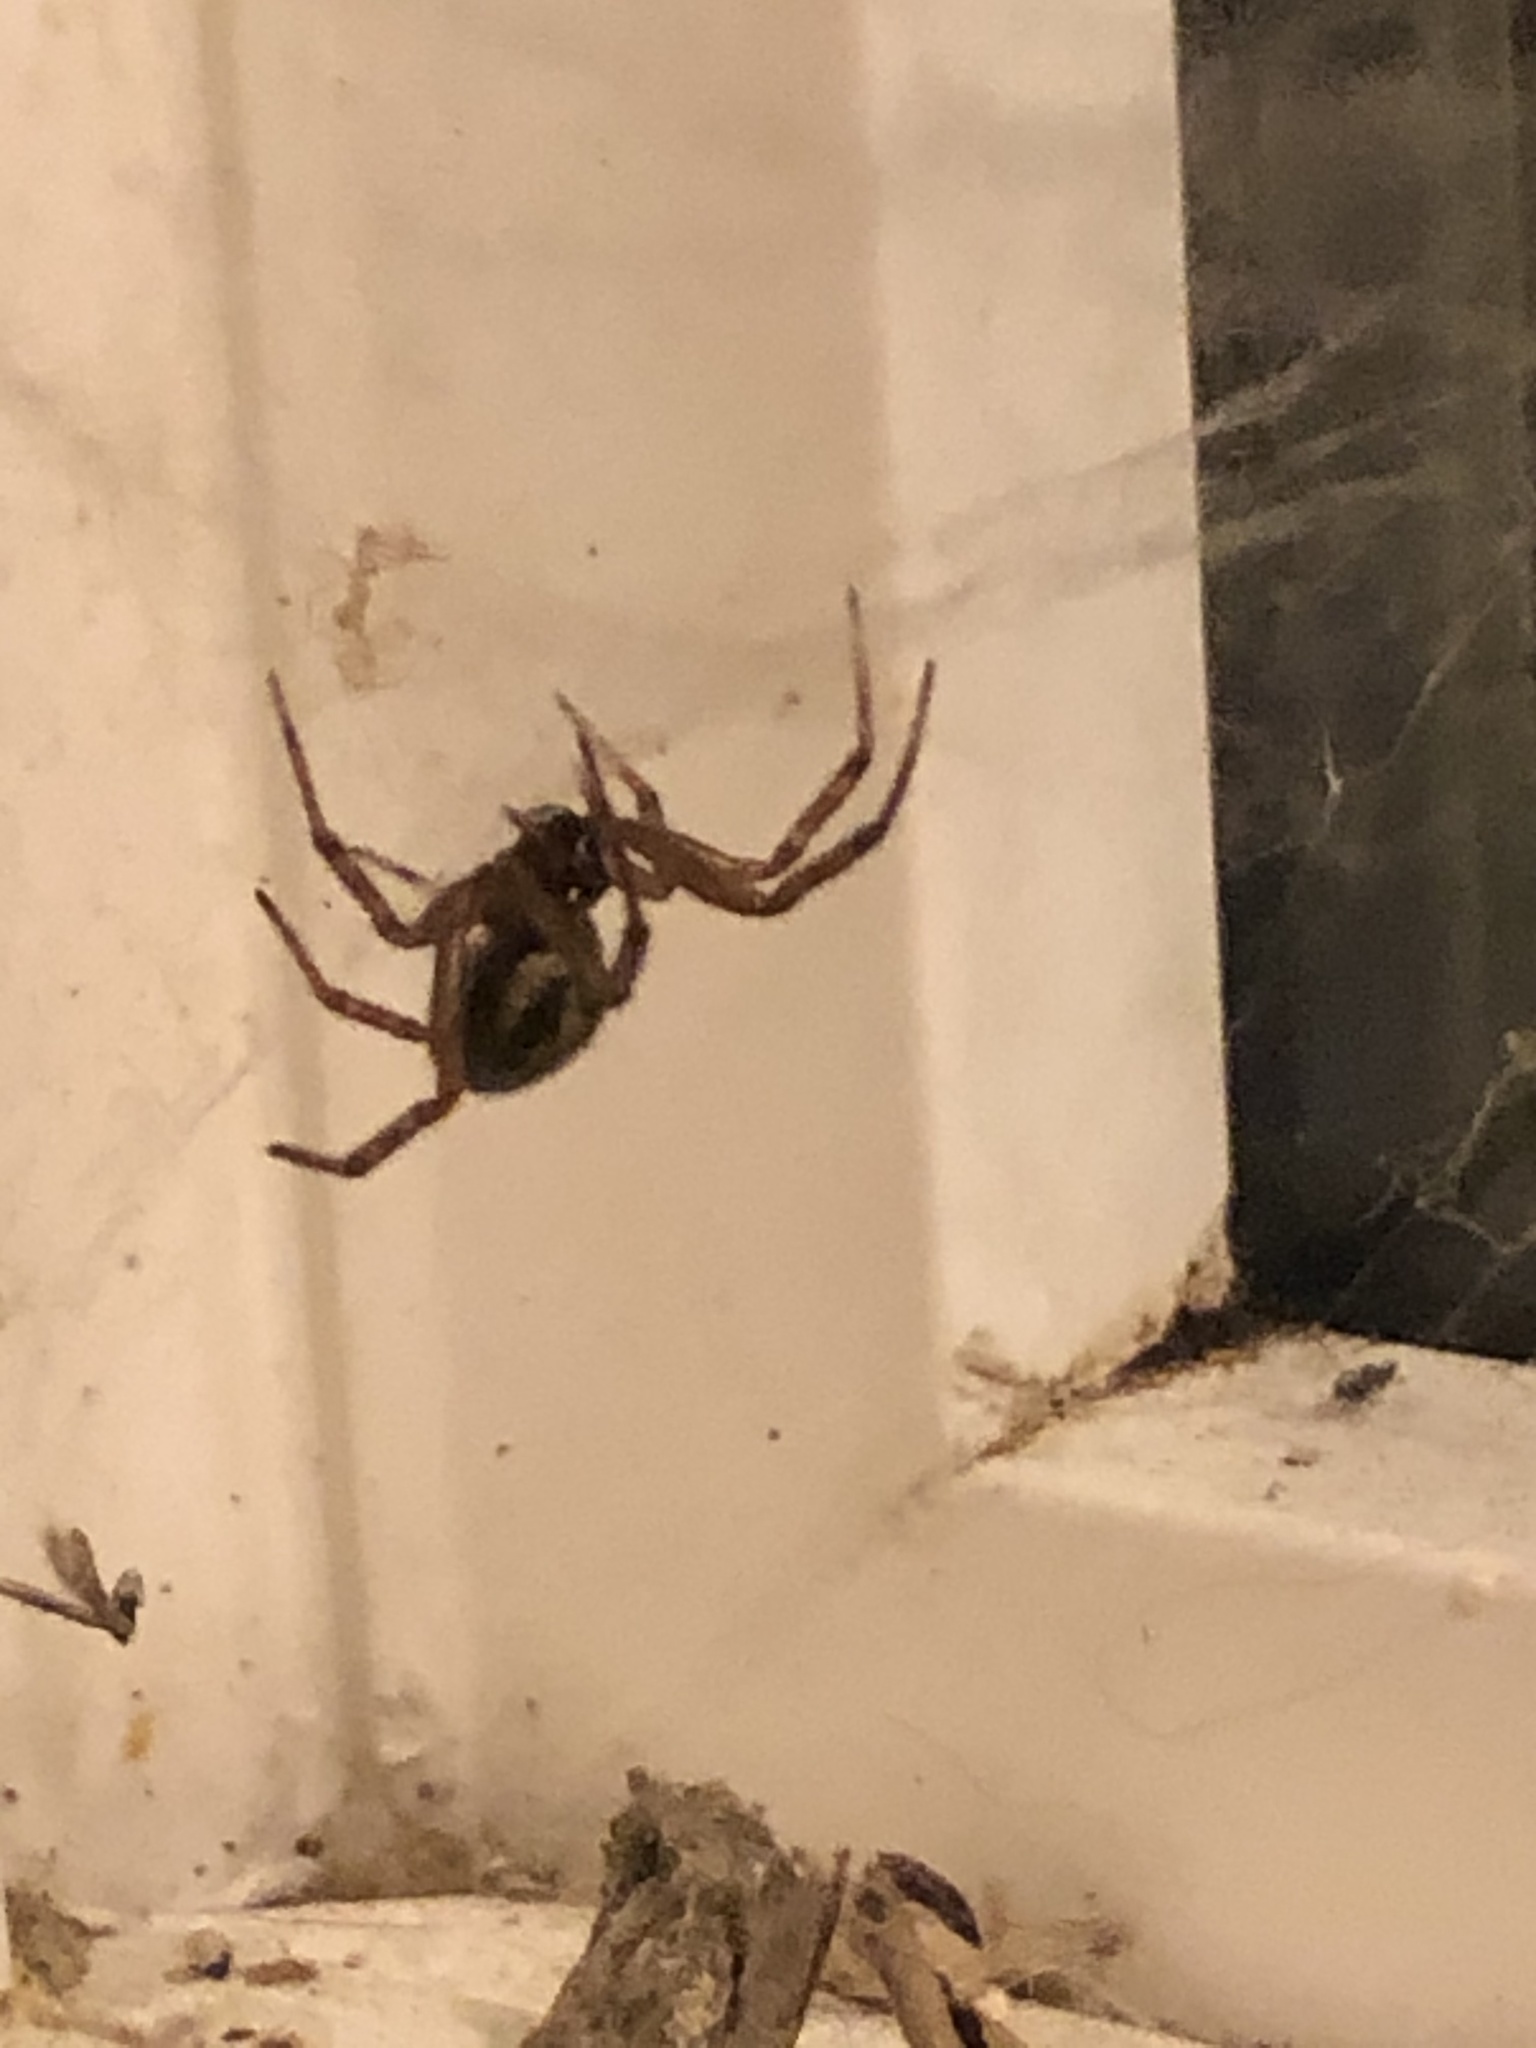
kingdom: Animalia
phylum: Arthropoda
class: Arachnida
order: Araneae
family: Theridiidae
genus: Steatoda
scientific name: Steatoda nobilis
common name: Cobweb weaver
